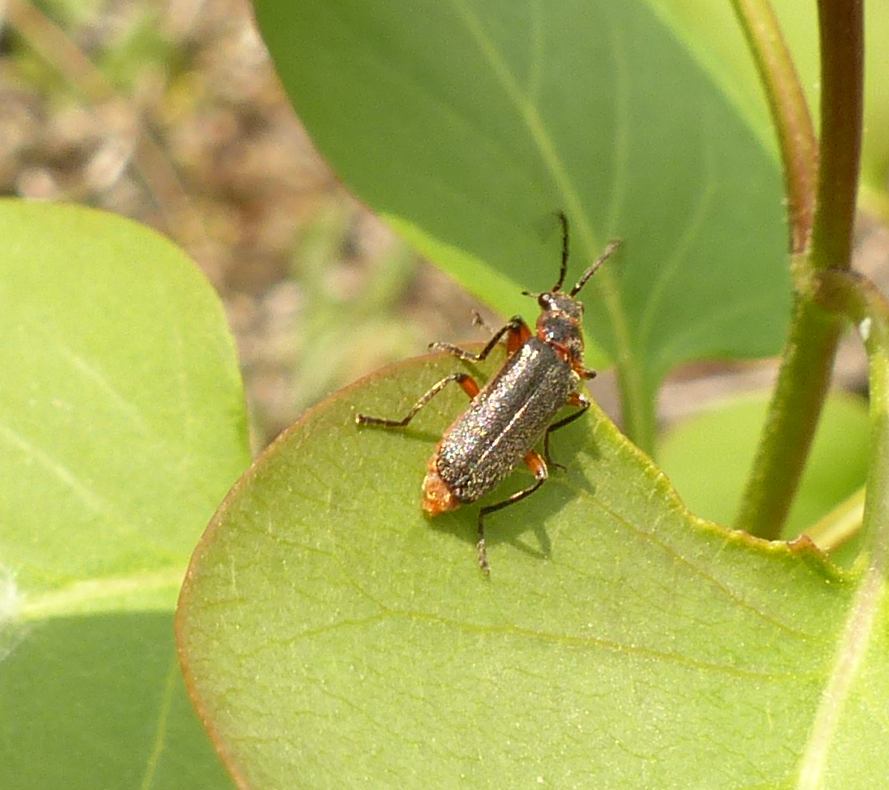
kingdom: Animalia
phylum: Arthropoda
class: Insecta
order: Coleoptera
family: Cantharidae
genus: Atalantycha
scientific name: Atalantycha bilineata
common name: Two-lined leatherwing
